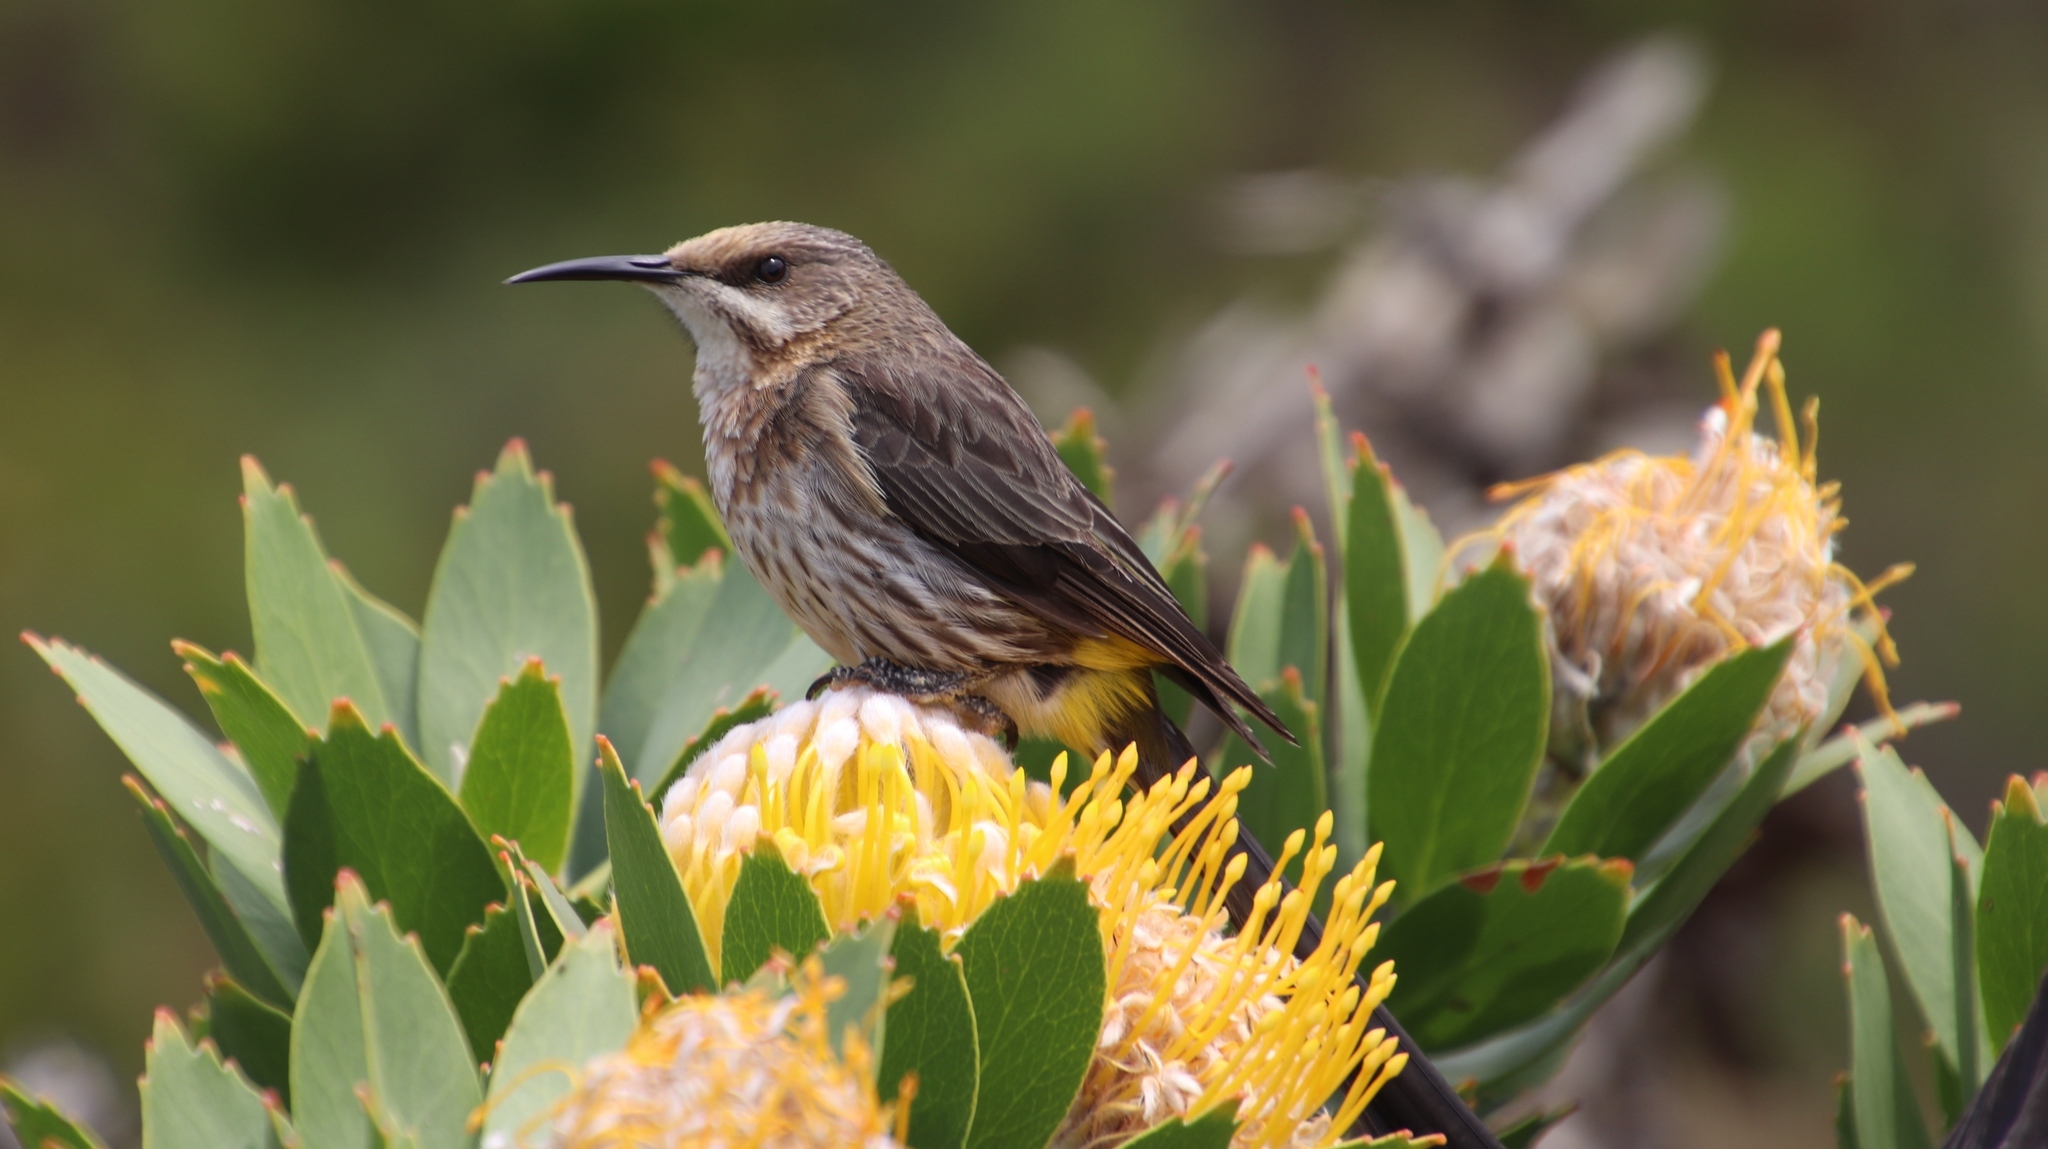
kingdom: Plantae
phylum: Tracheophyta
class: Magnoliopsida
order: Proteales
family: Proteaceae
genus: Leucospermum
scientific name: Leucospermum conocarpodendron
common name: Tree pincushion
